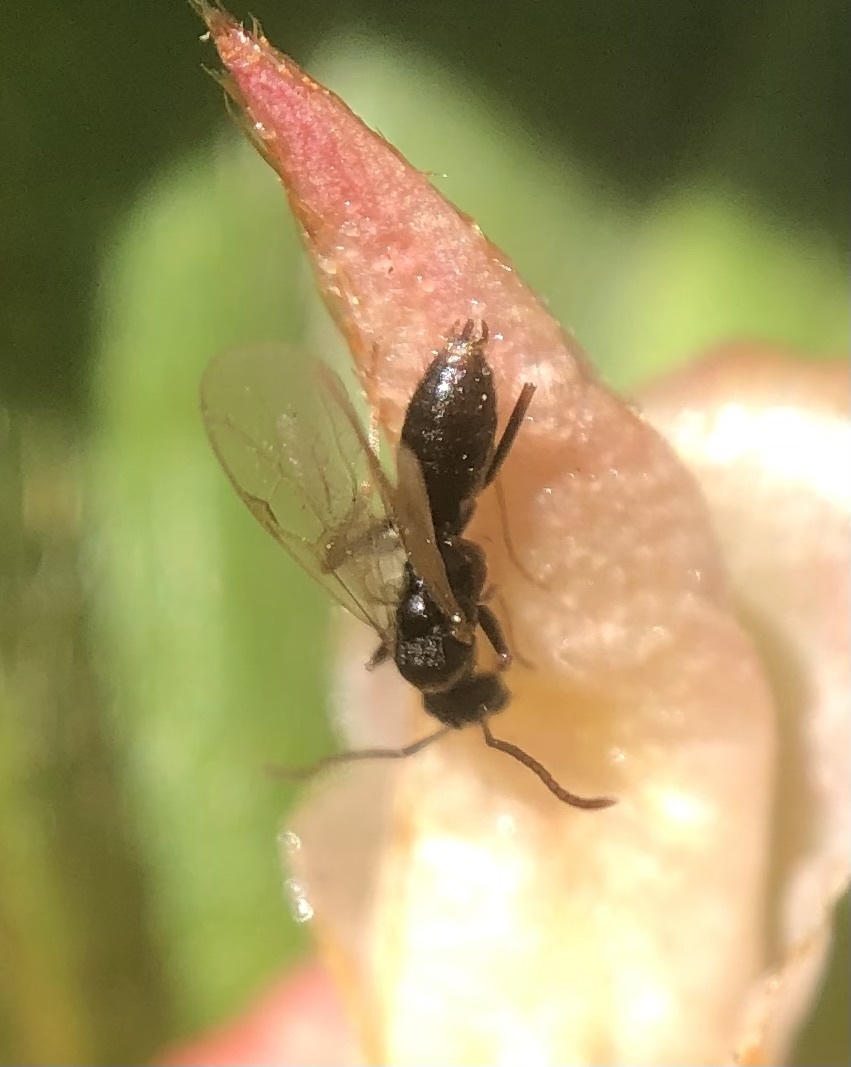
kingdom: Animalia
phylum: Arthropoda
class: Insecta
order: Hymenoptera
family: Formicidae
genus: Prenolepis
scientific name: Prenolepis imparis
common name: Small honey ant
